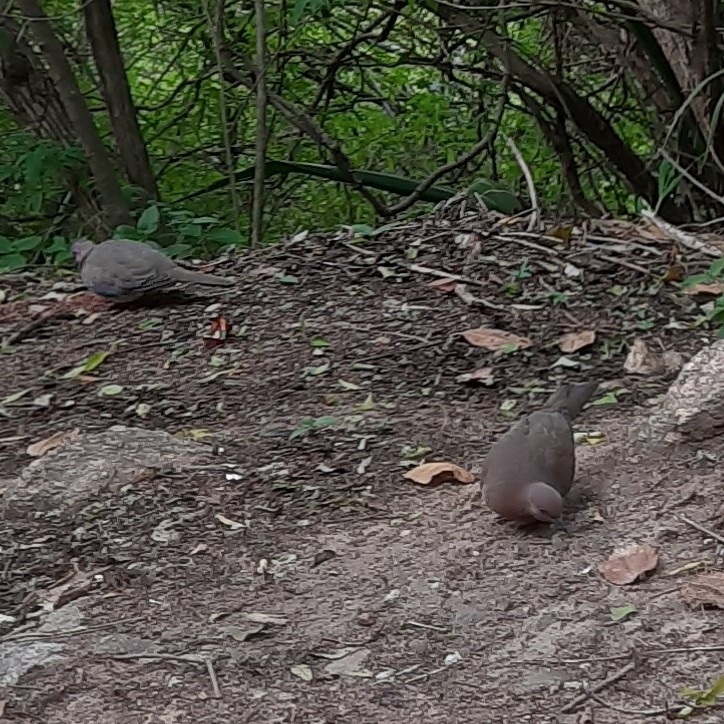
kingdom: Animalia
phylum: Chordata
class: Aves
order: Columbiformes
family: Columbidae
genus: Spilopelia
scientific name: Spilopelia senegalensis
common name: Laughing dove
